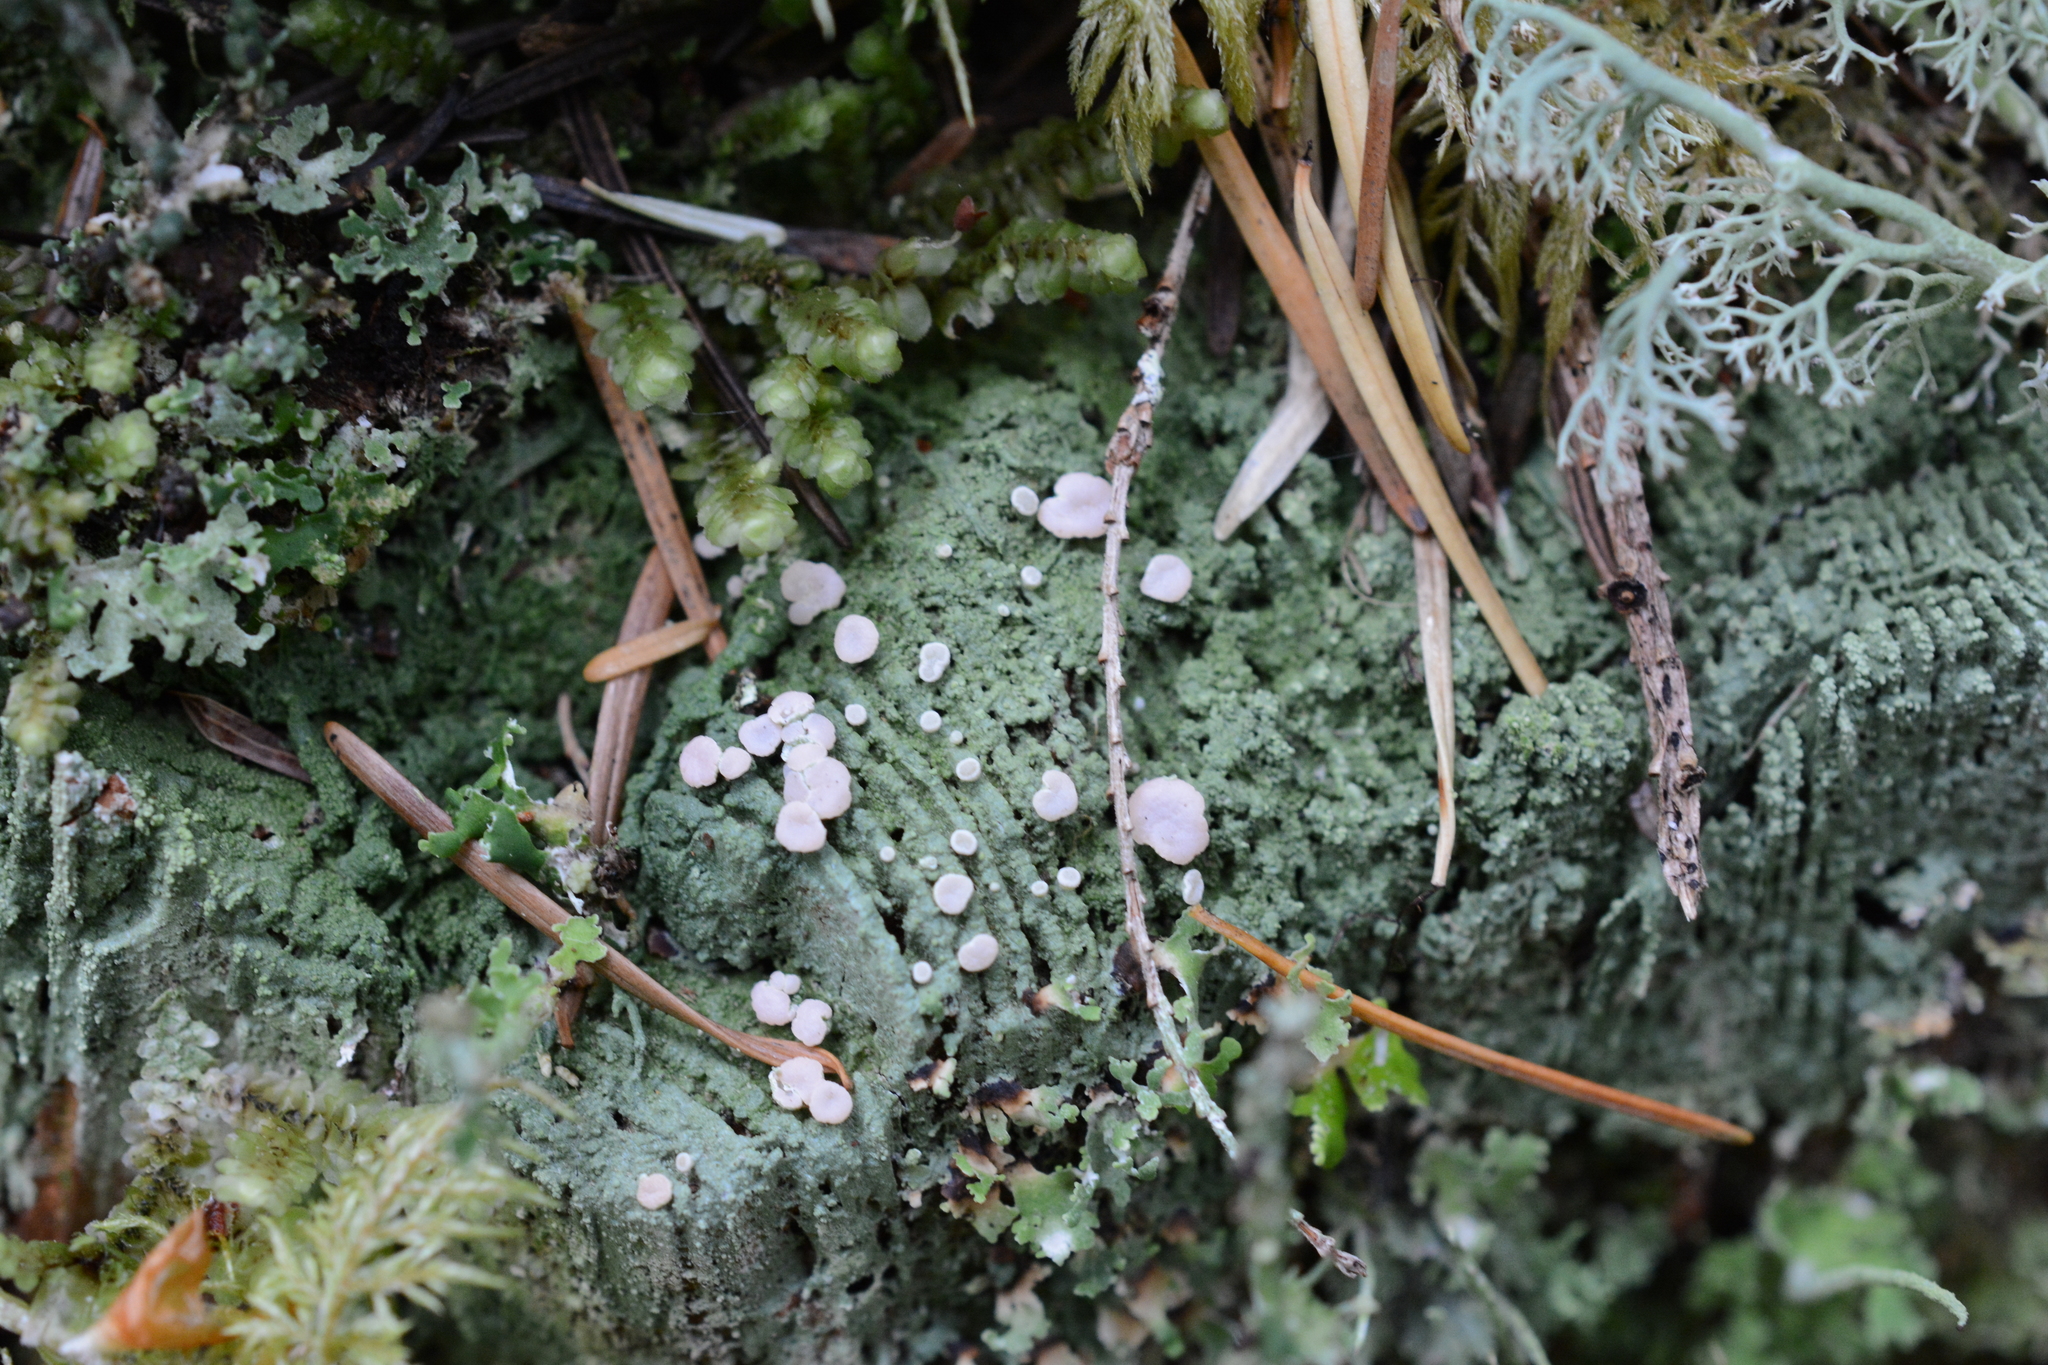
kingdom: Fungi
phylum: Ascomycota
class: Lecanoromycetes
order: Pertusariales
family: Icmadophilaceae
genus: Icmadophila
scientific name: Icmadophila ericetorum
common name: Candy lichen
